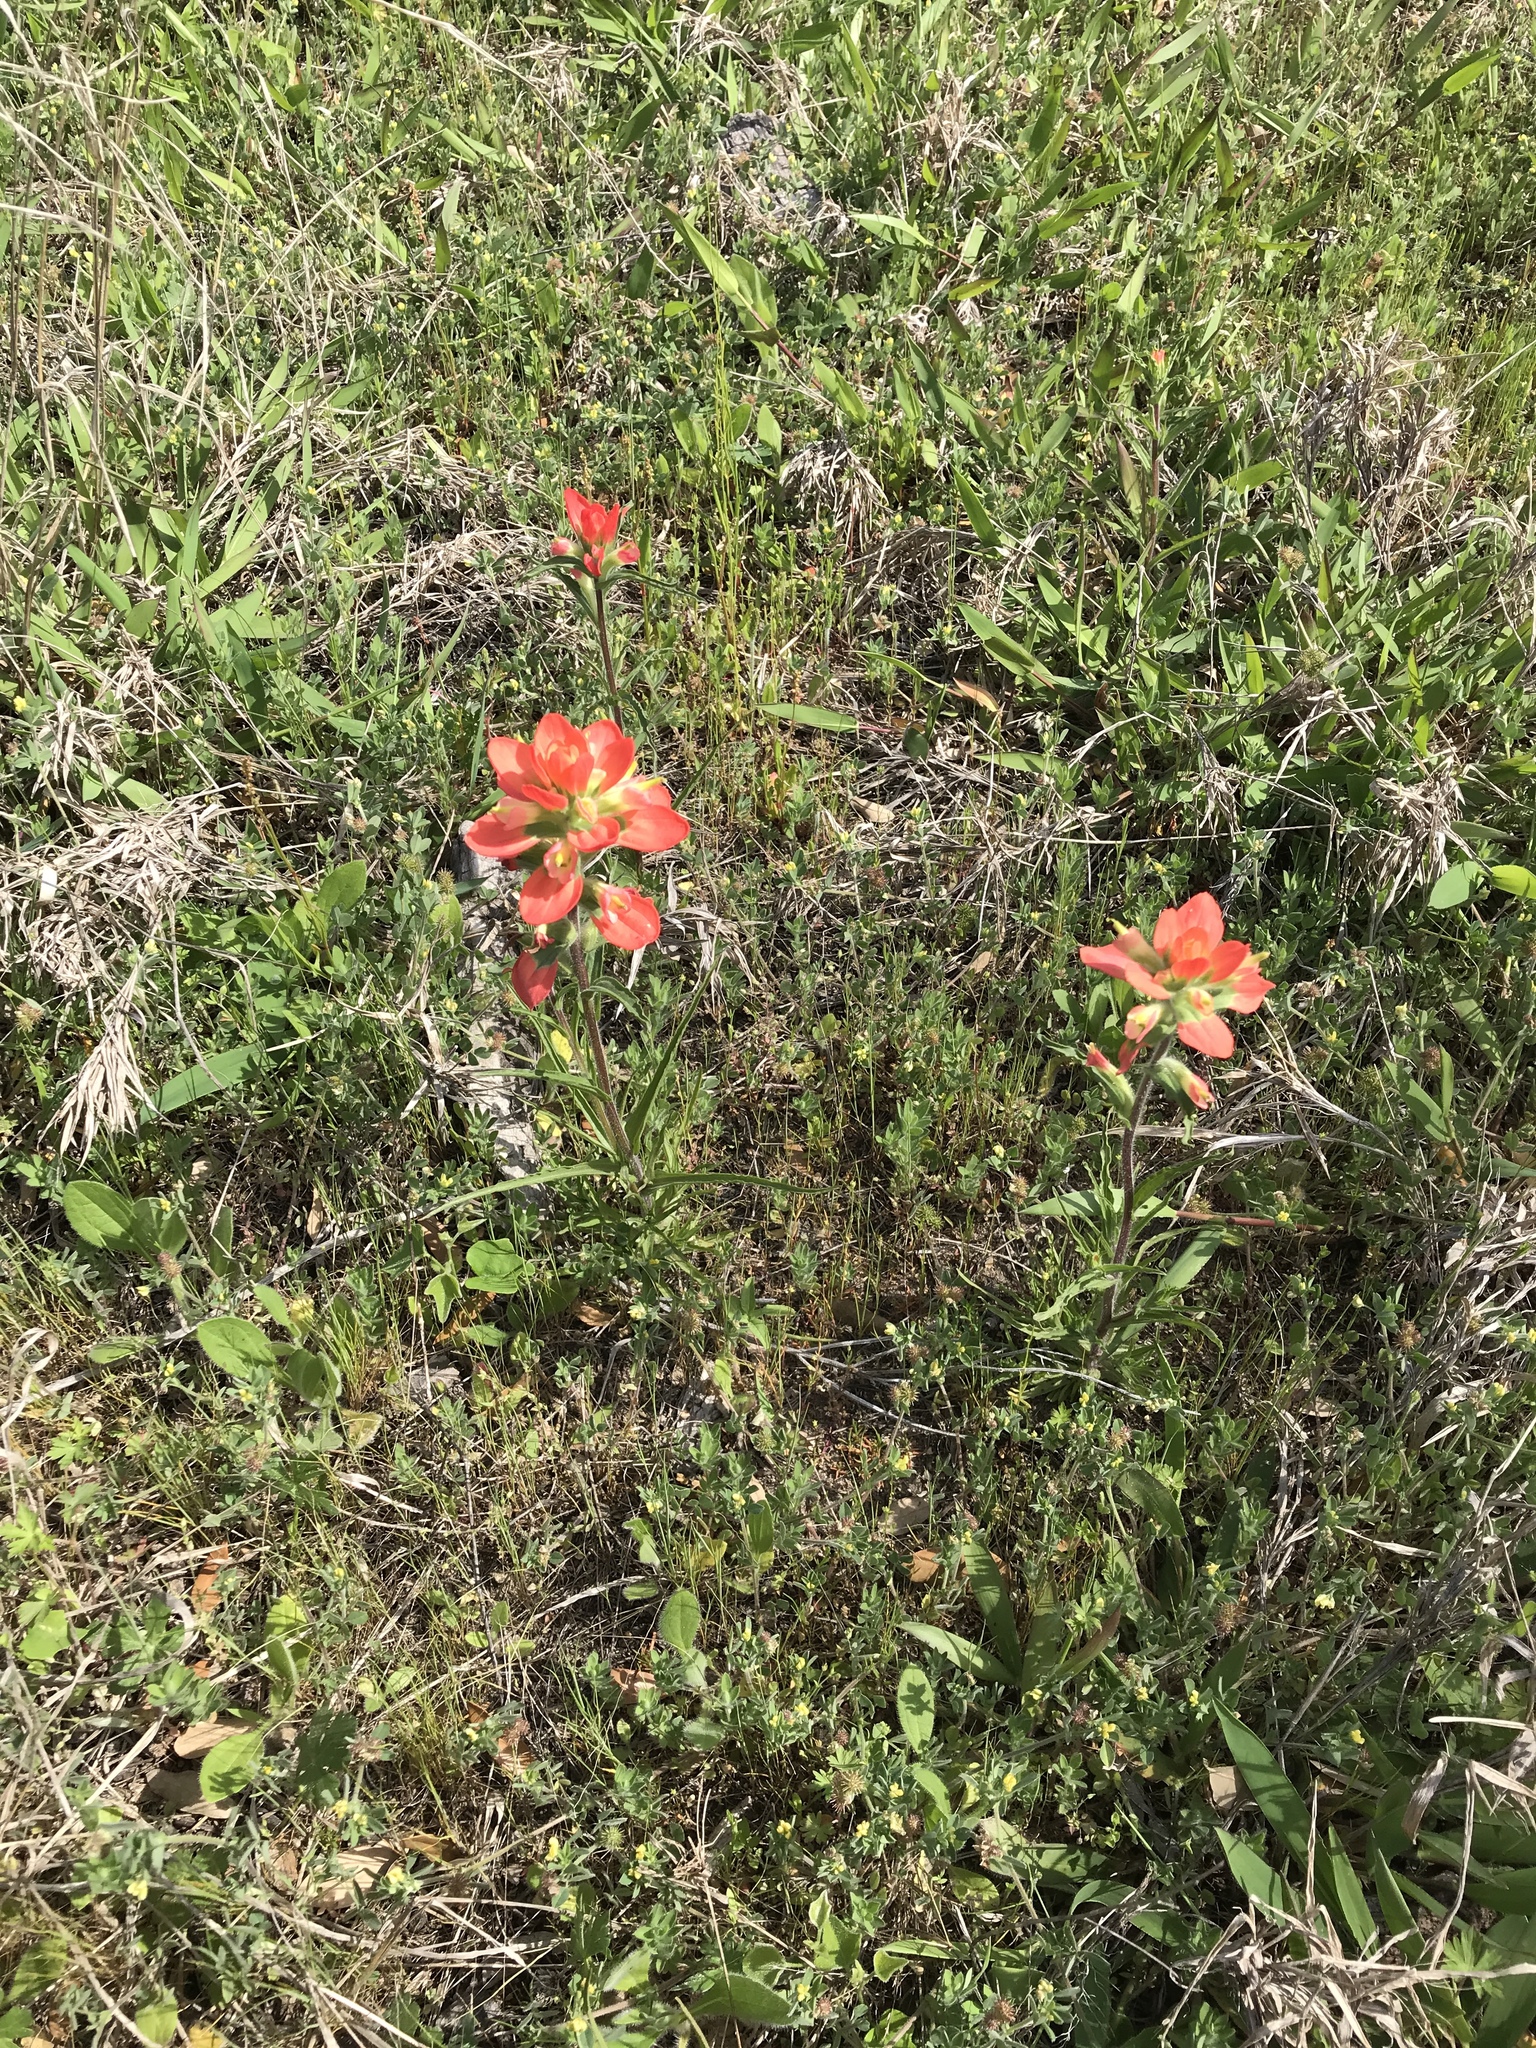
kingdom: Plantae
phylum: Tracheophyta
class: Magnoliopsida
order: Lamiales
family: Orobanchaceae
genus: Castilleja
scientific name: Castilleja indivisa
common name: Texas paintbrush
